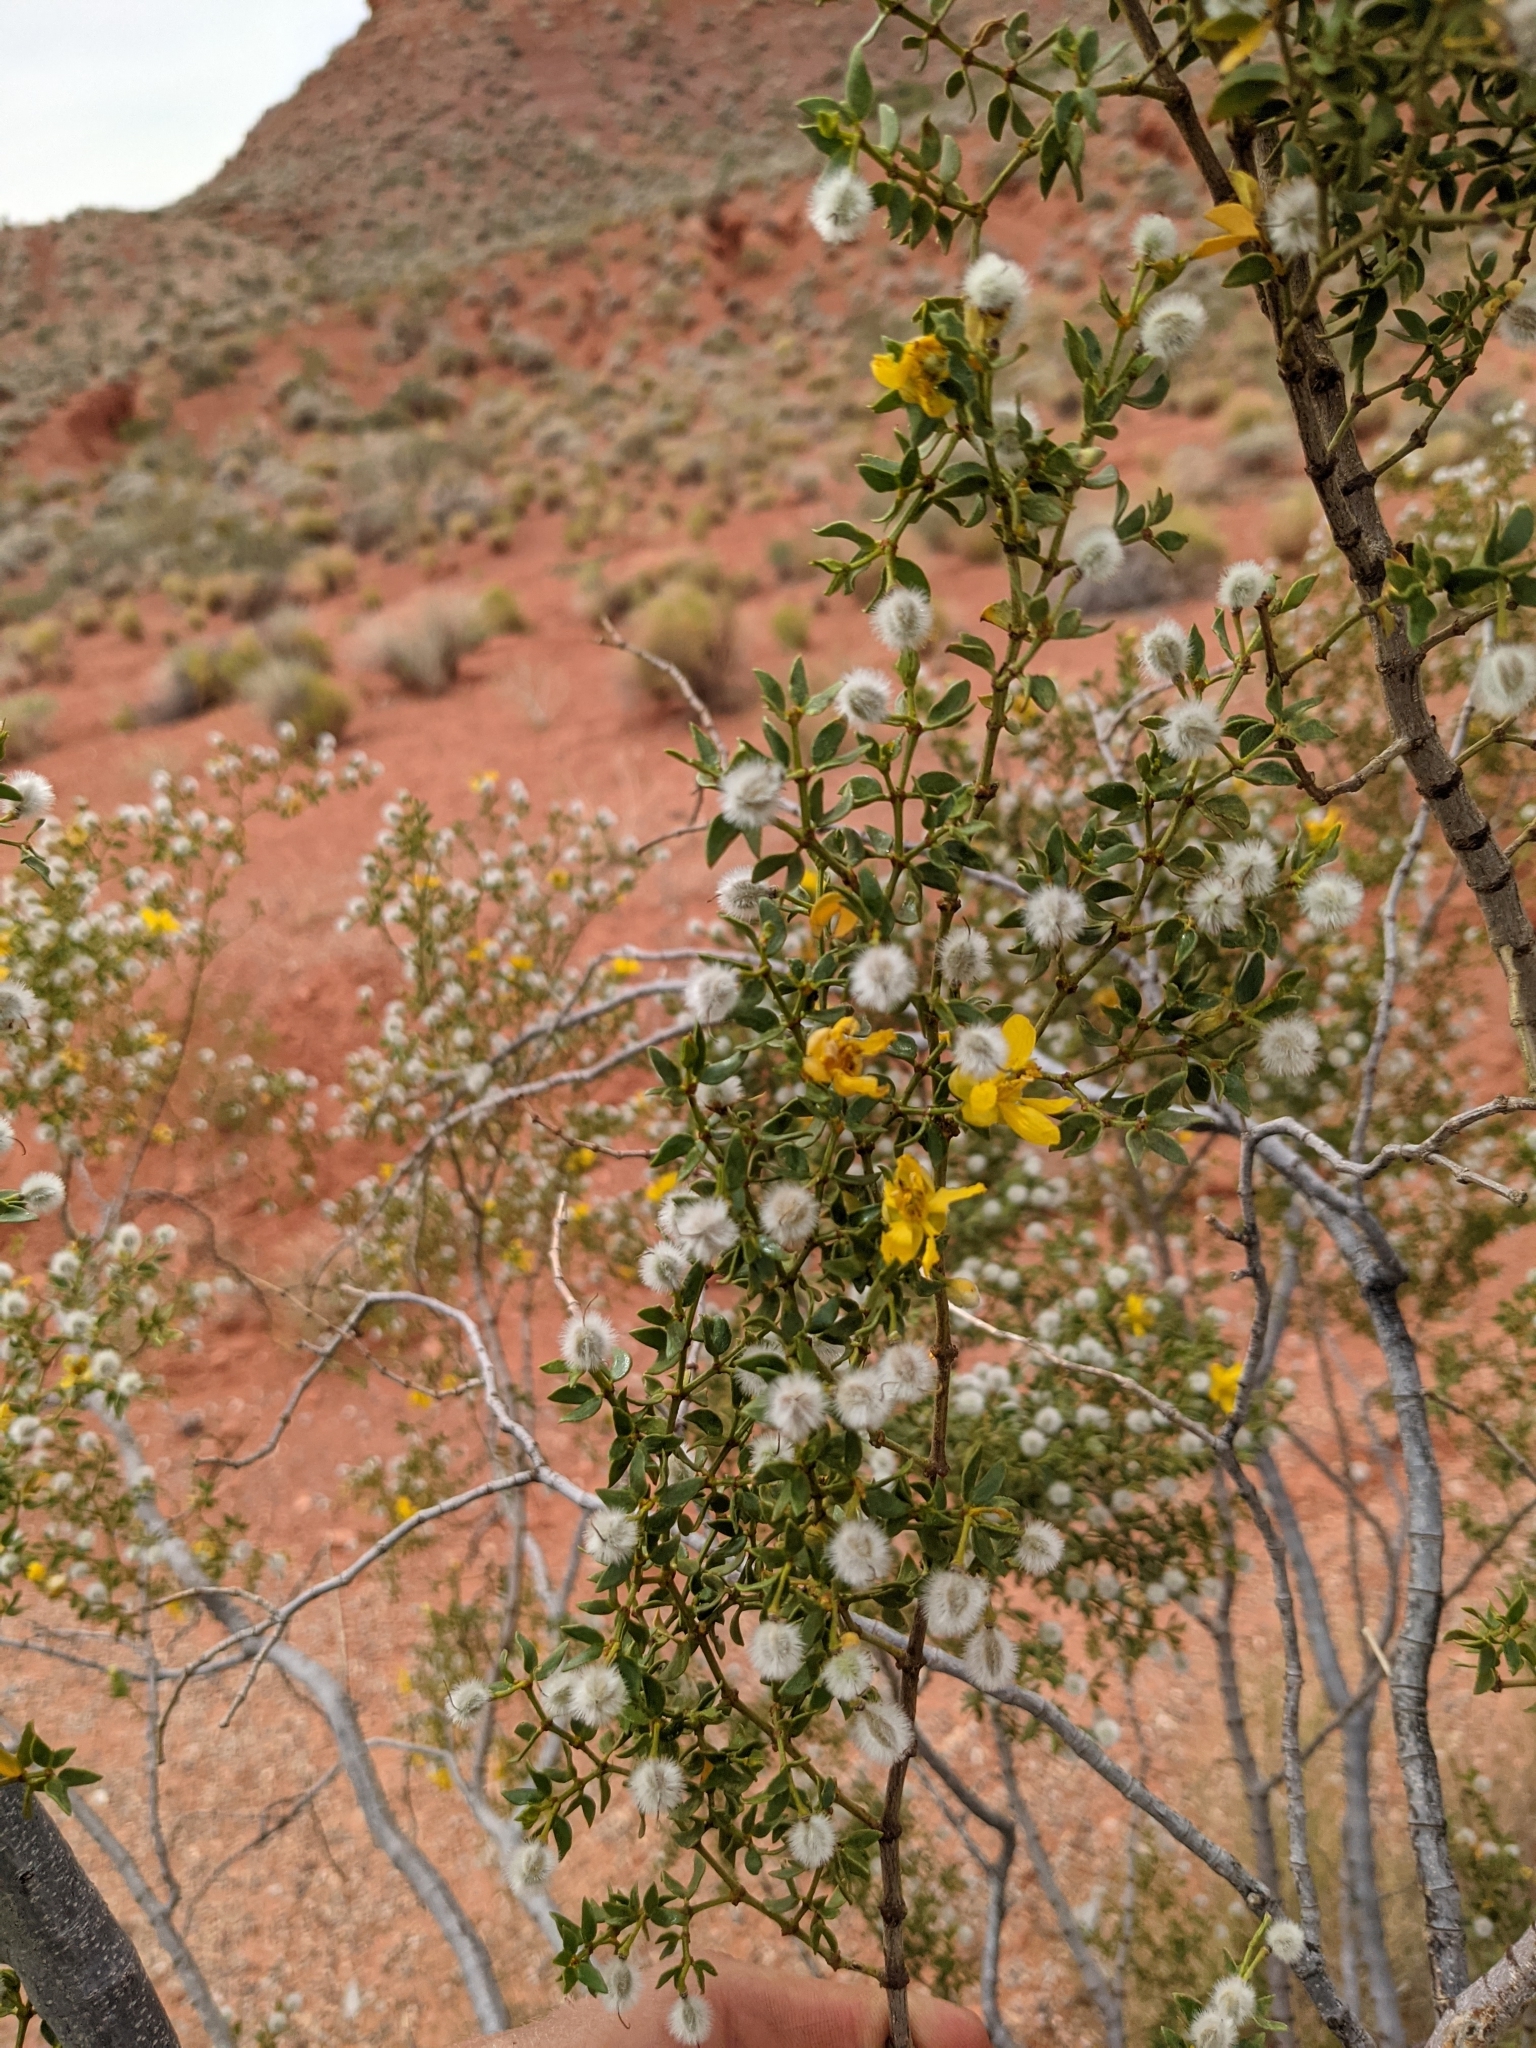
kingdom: Plantae
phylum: Tracheophyta
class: Magnoliopsida
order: Zygophyllales
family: Zygophyllaceae
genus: Larrea
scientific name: Larrea tridentata
